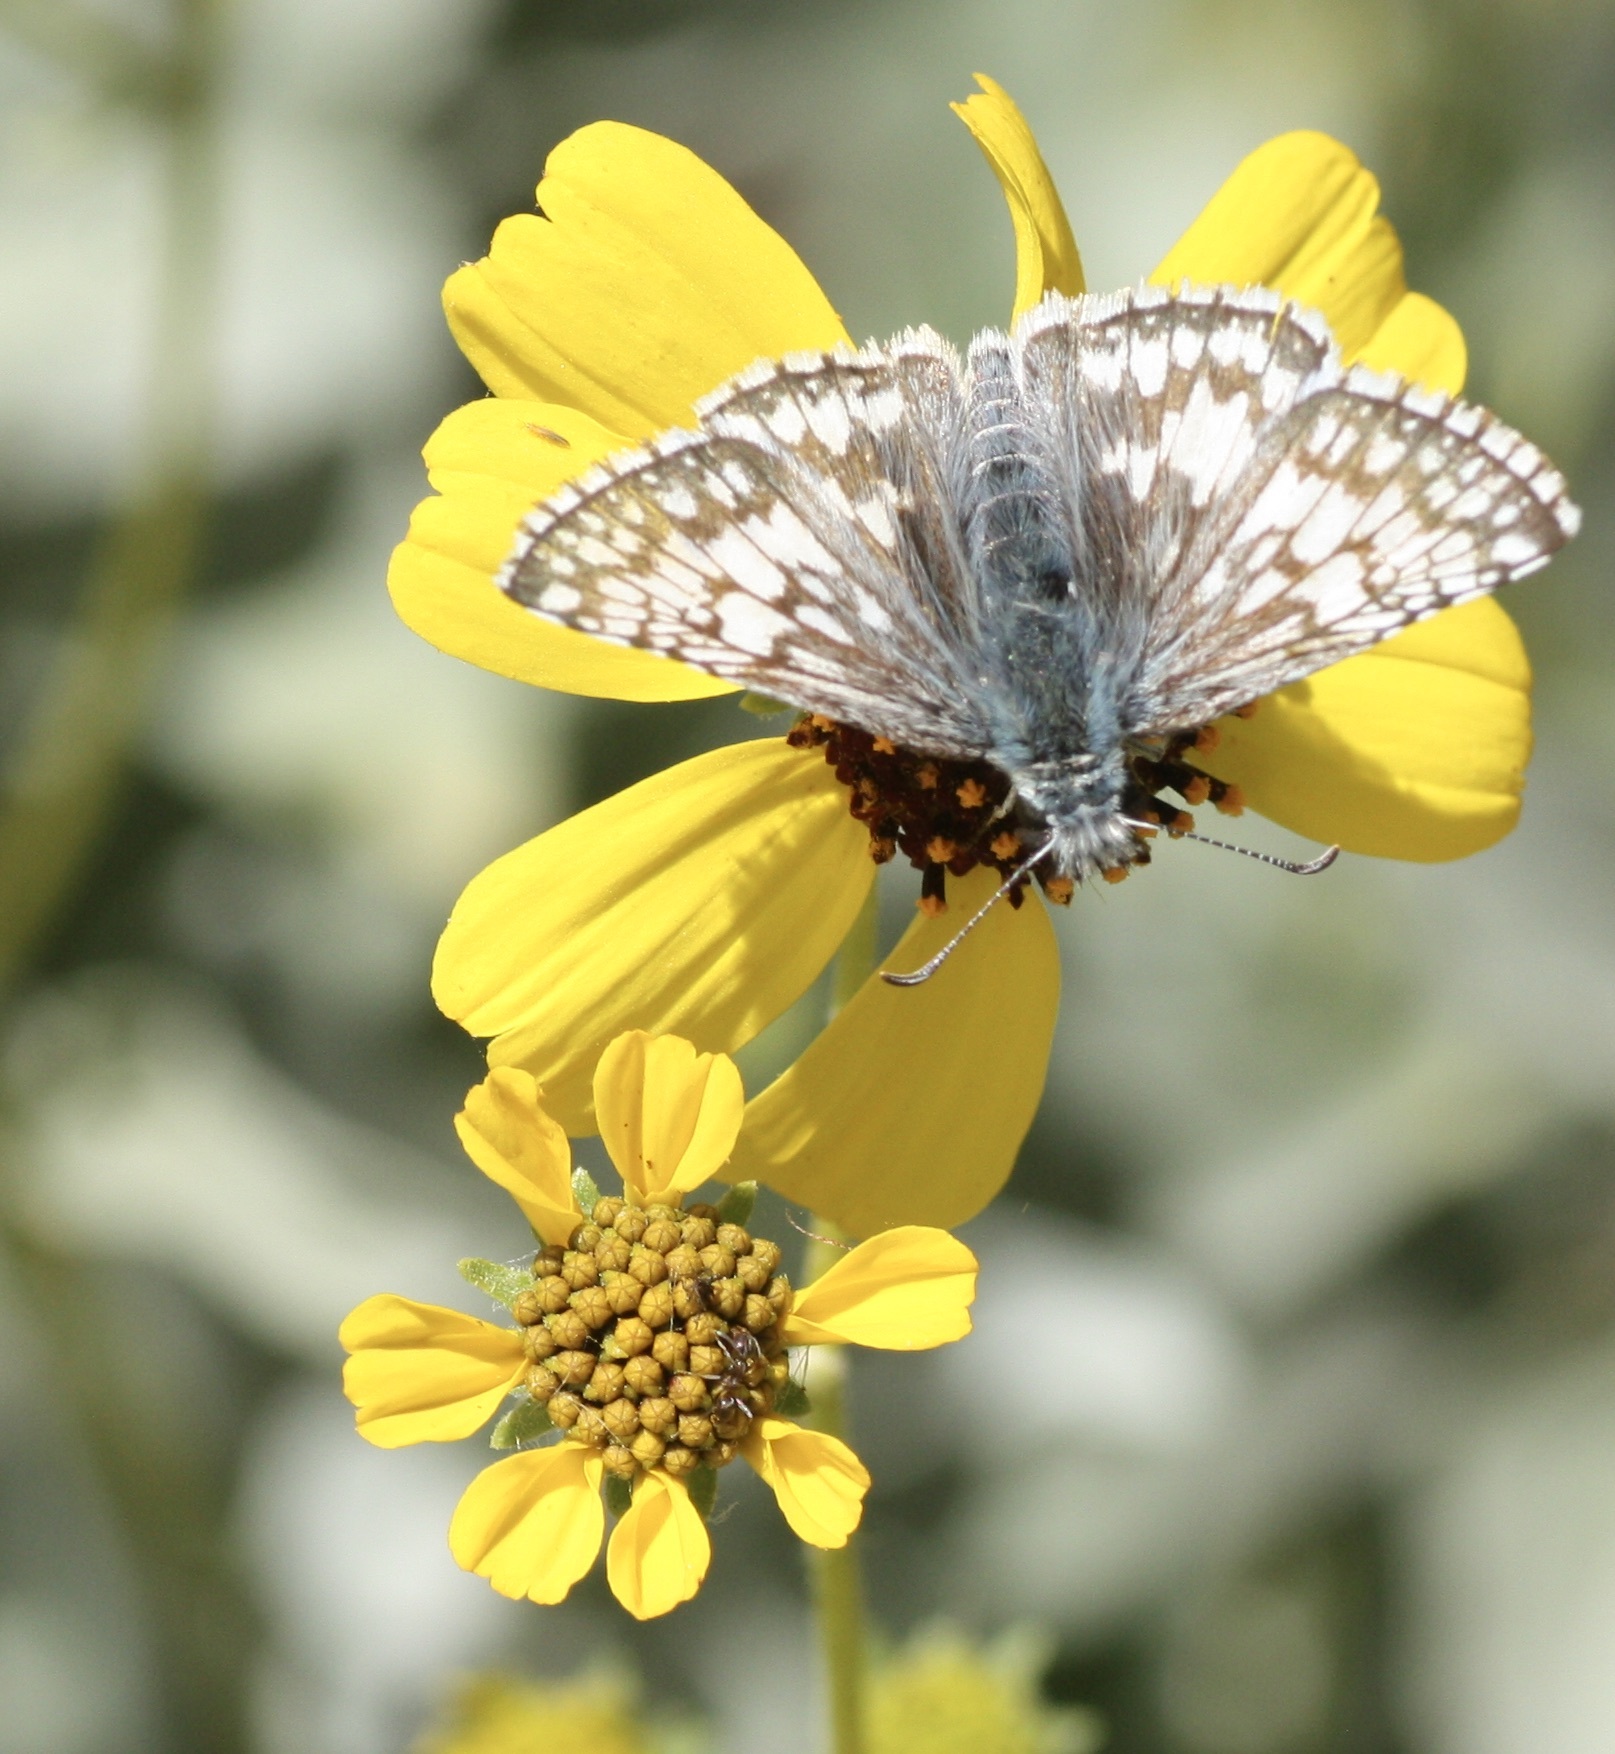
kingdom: Animalia
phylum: Arthropoda
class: Insecta
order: Lepidoptera
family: Hesperiidae
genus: Burnsius
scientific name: Burnsius albezens
